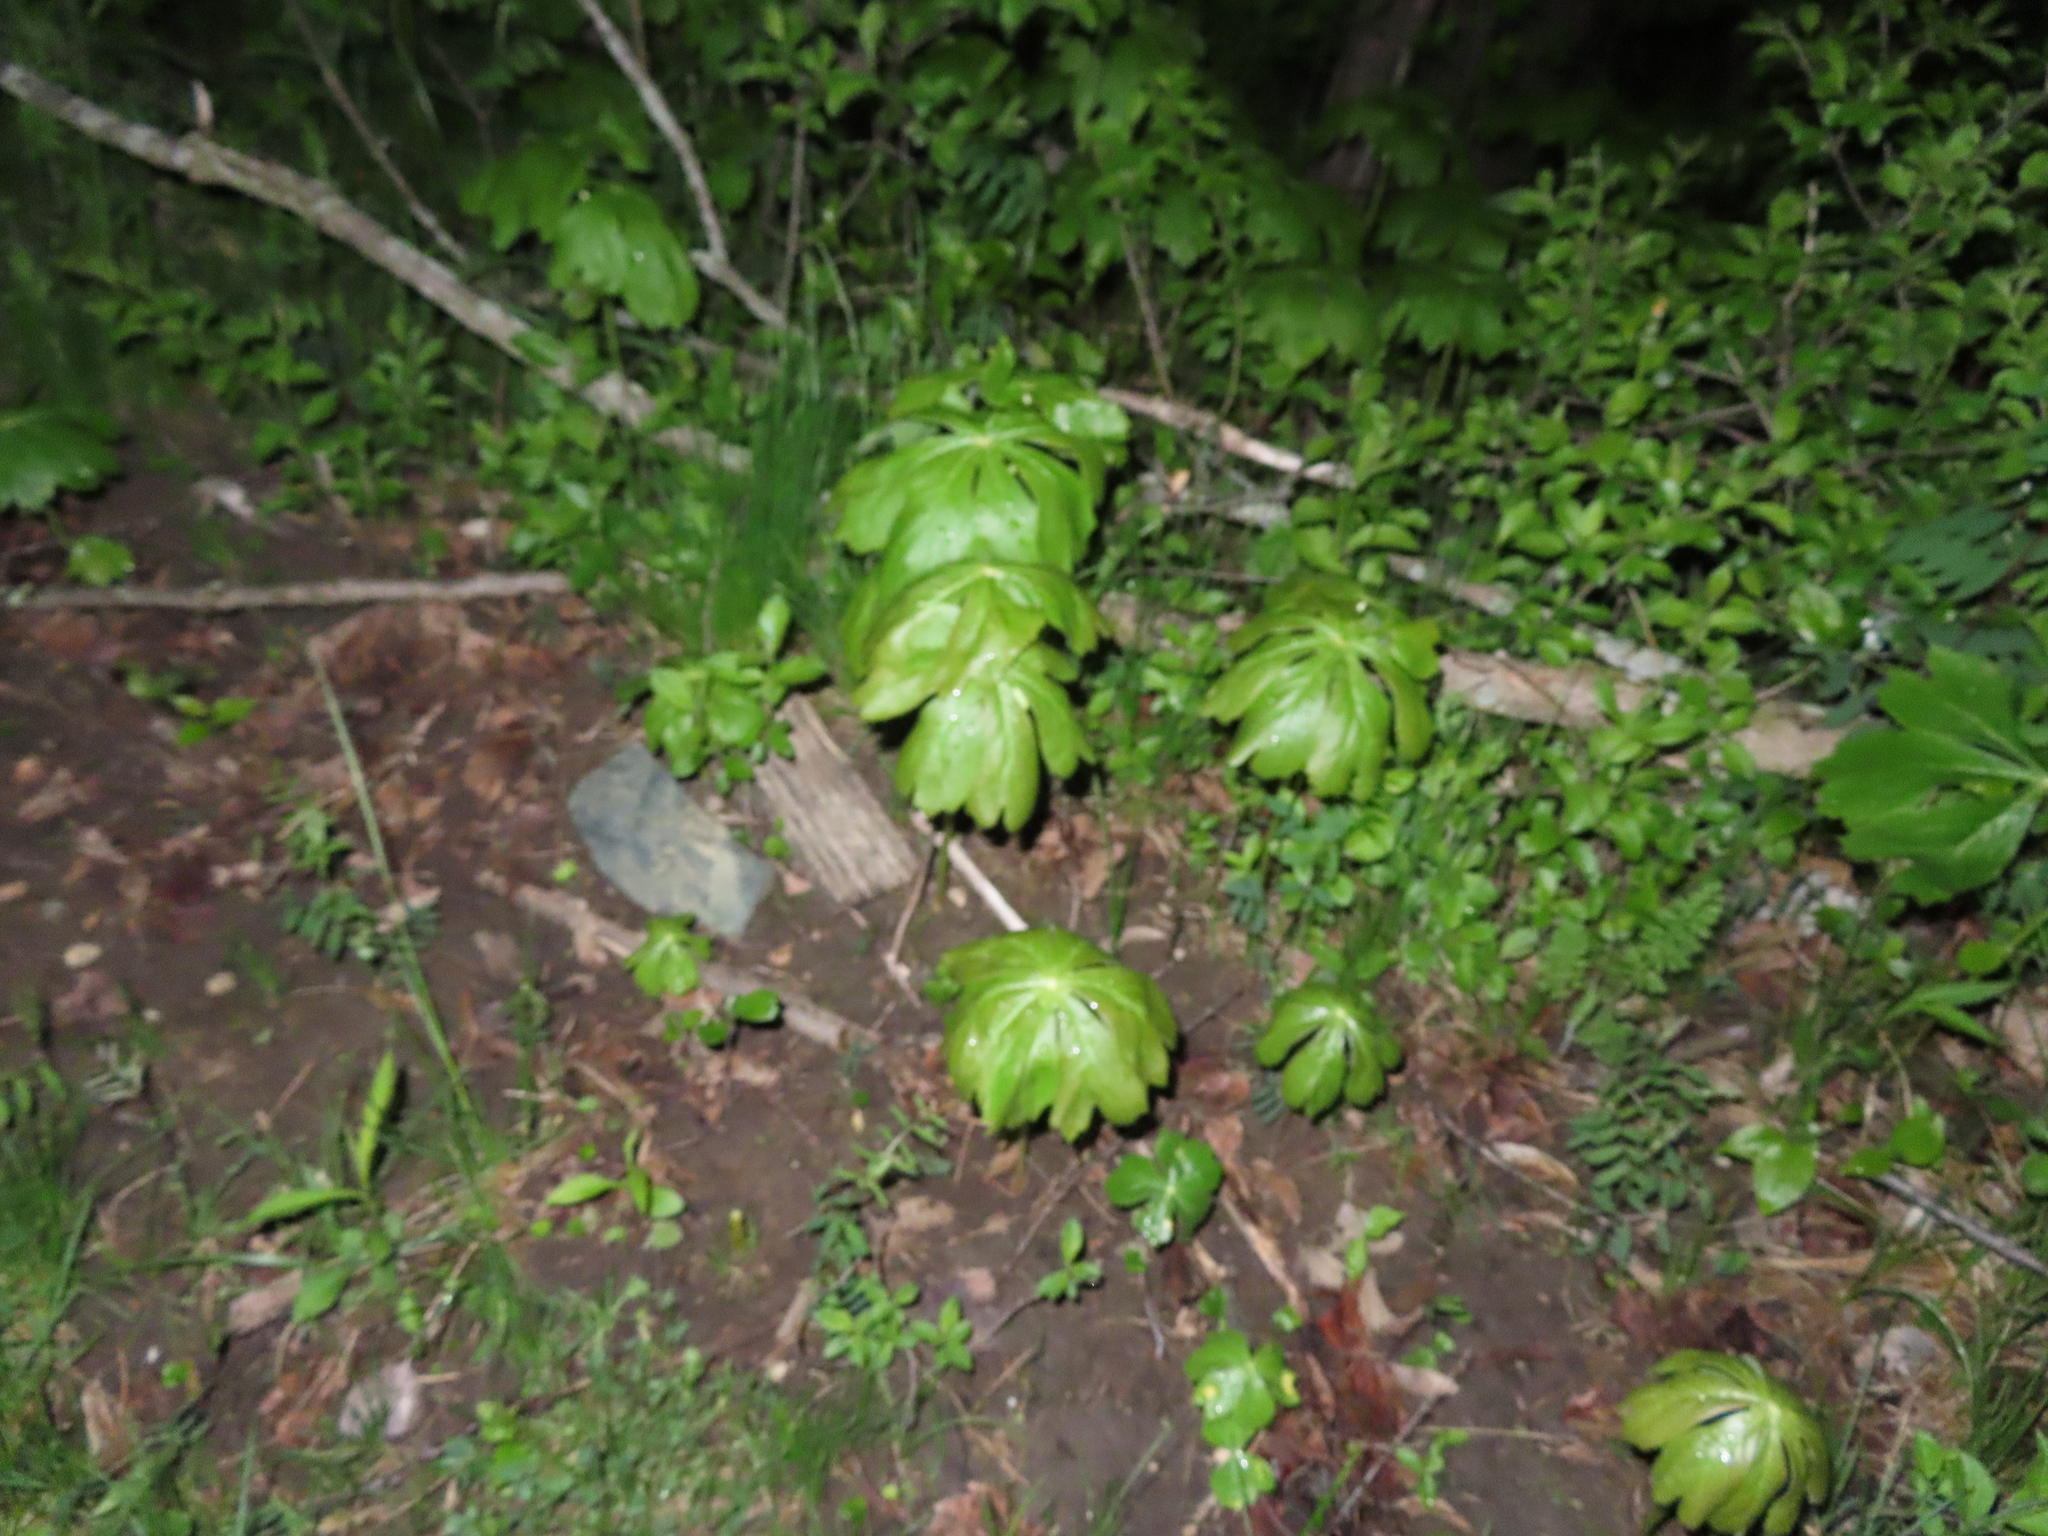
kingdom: Plantae
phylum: Tracheophyta
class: Magnoliopsida
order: Ranunculales
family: Berberidaceae
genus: Podophyllum
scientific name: Podophyllum peltatum
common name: Wild mandrake
